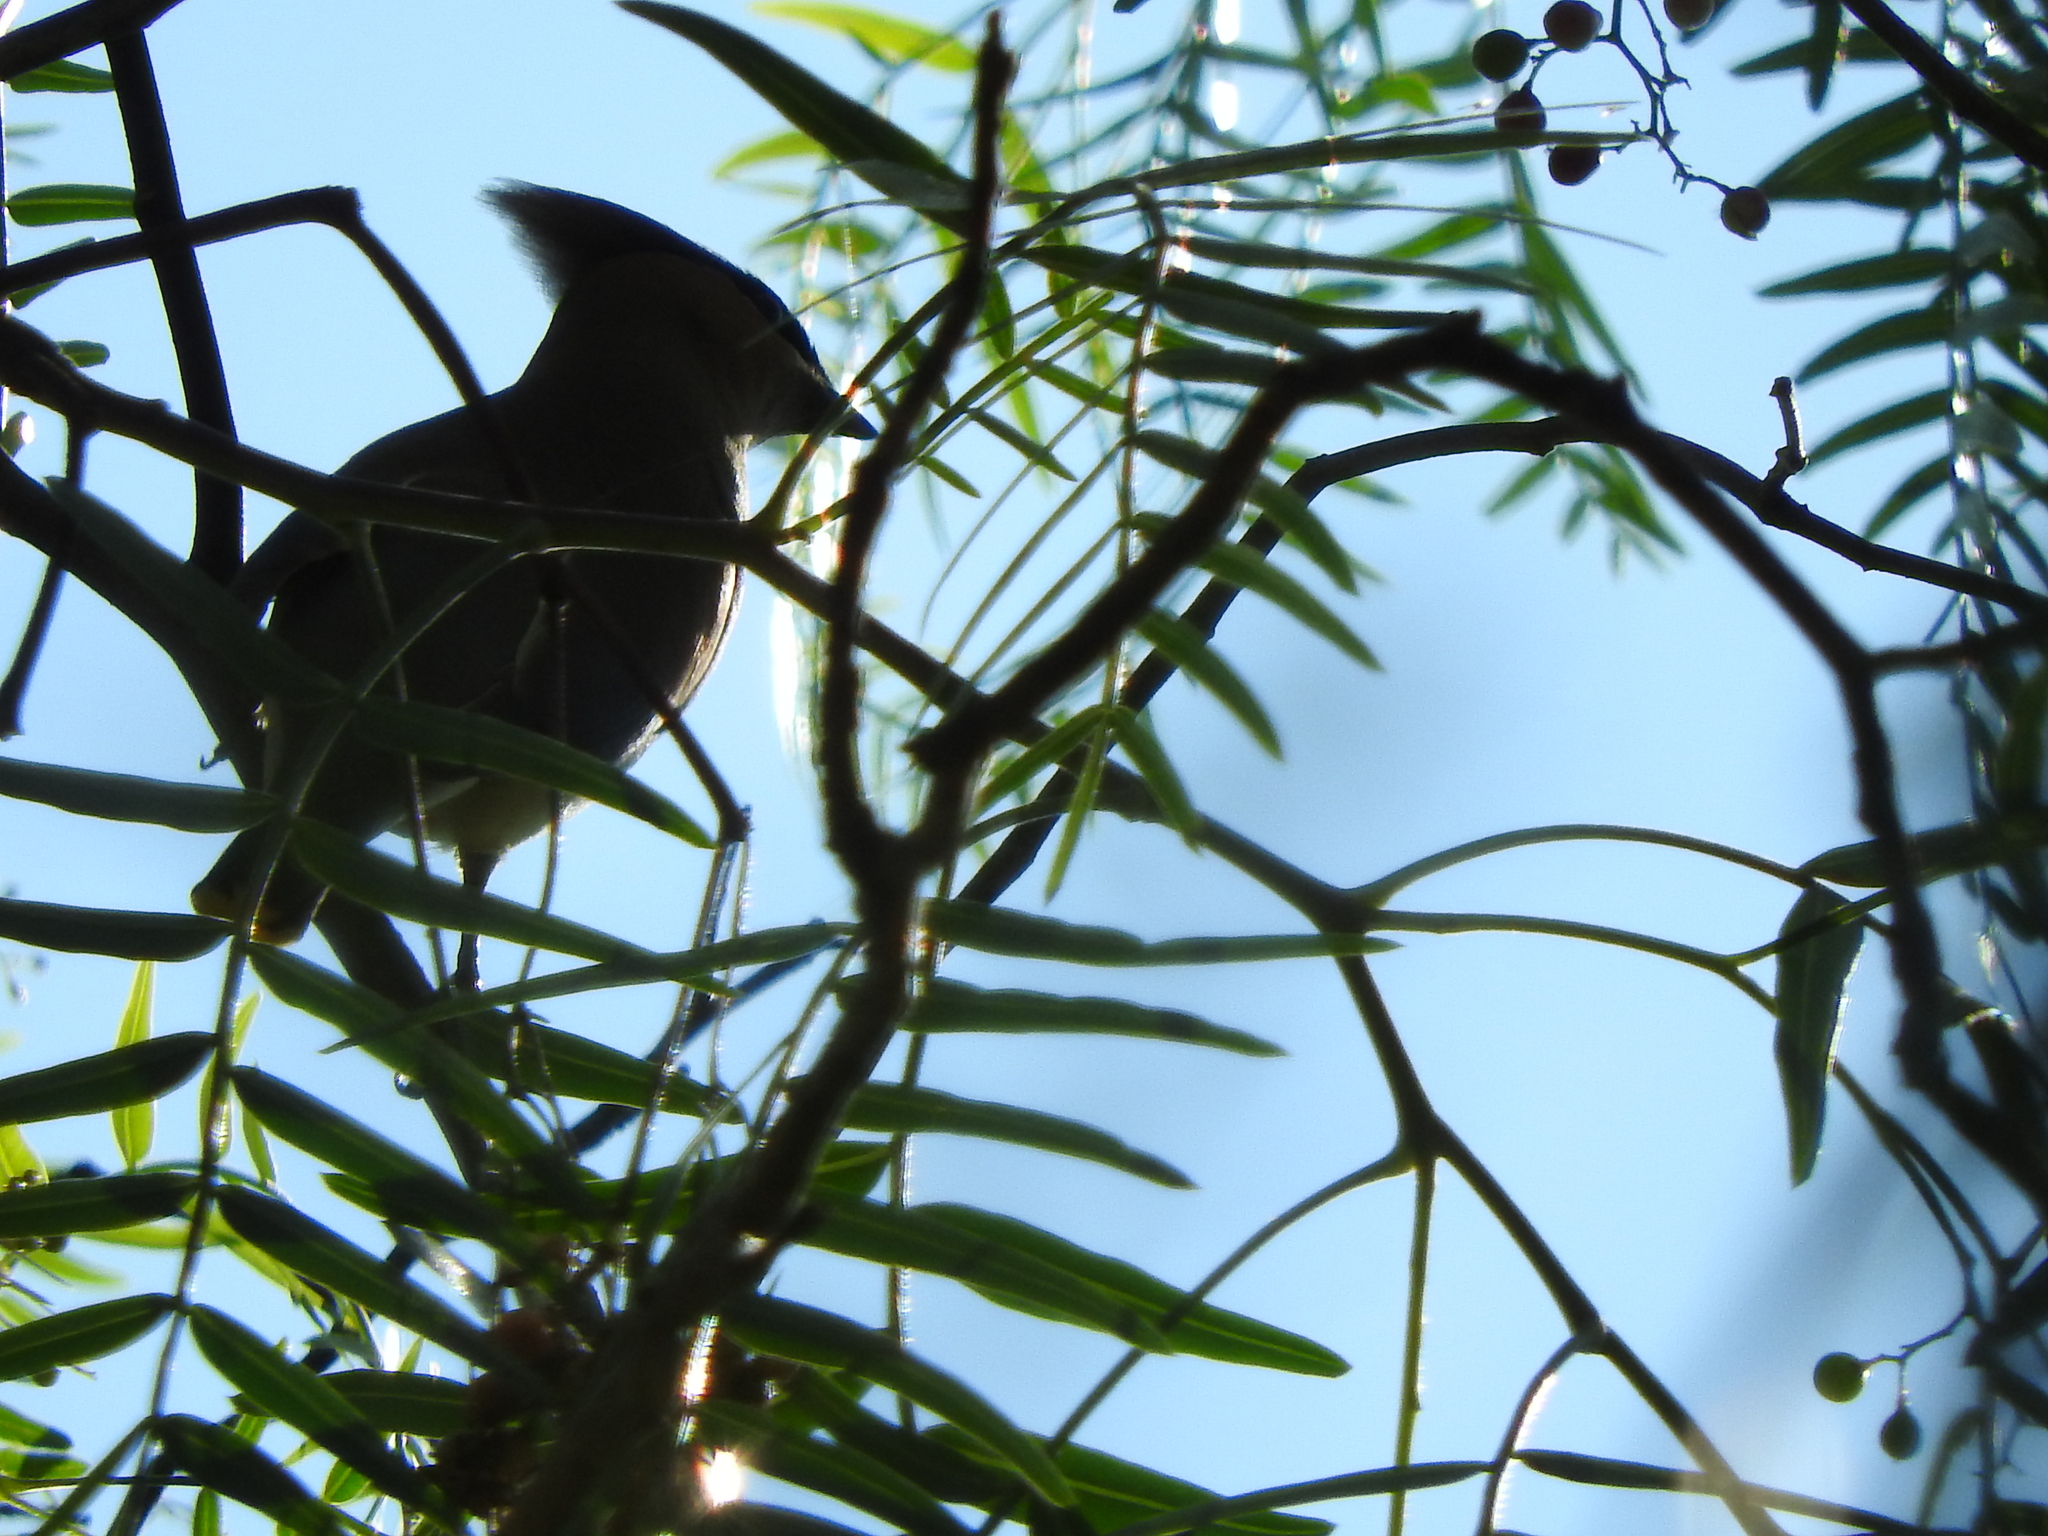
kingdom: Animalia
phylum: Chordata
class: Aves
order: Passeriformes
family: Bombycillidae
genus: Bombycilla
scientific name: Bombycilla cedrorum
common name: Cedar waxwing
